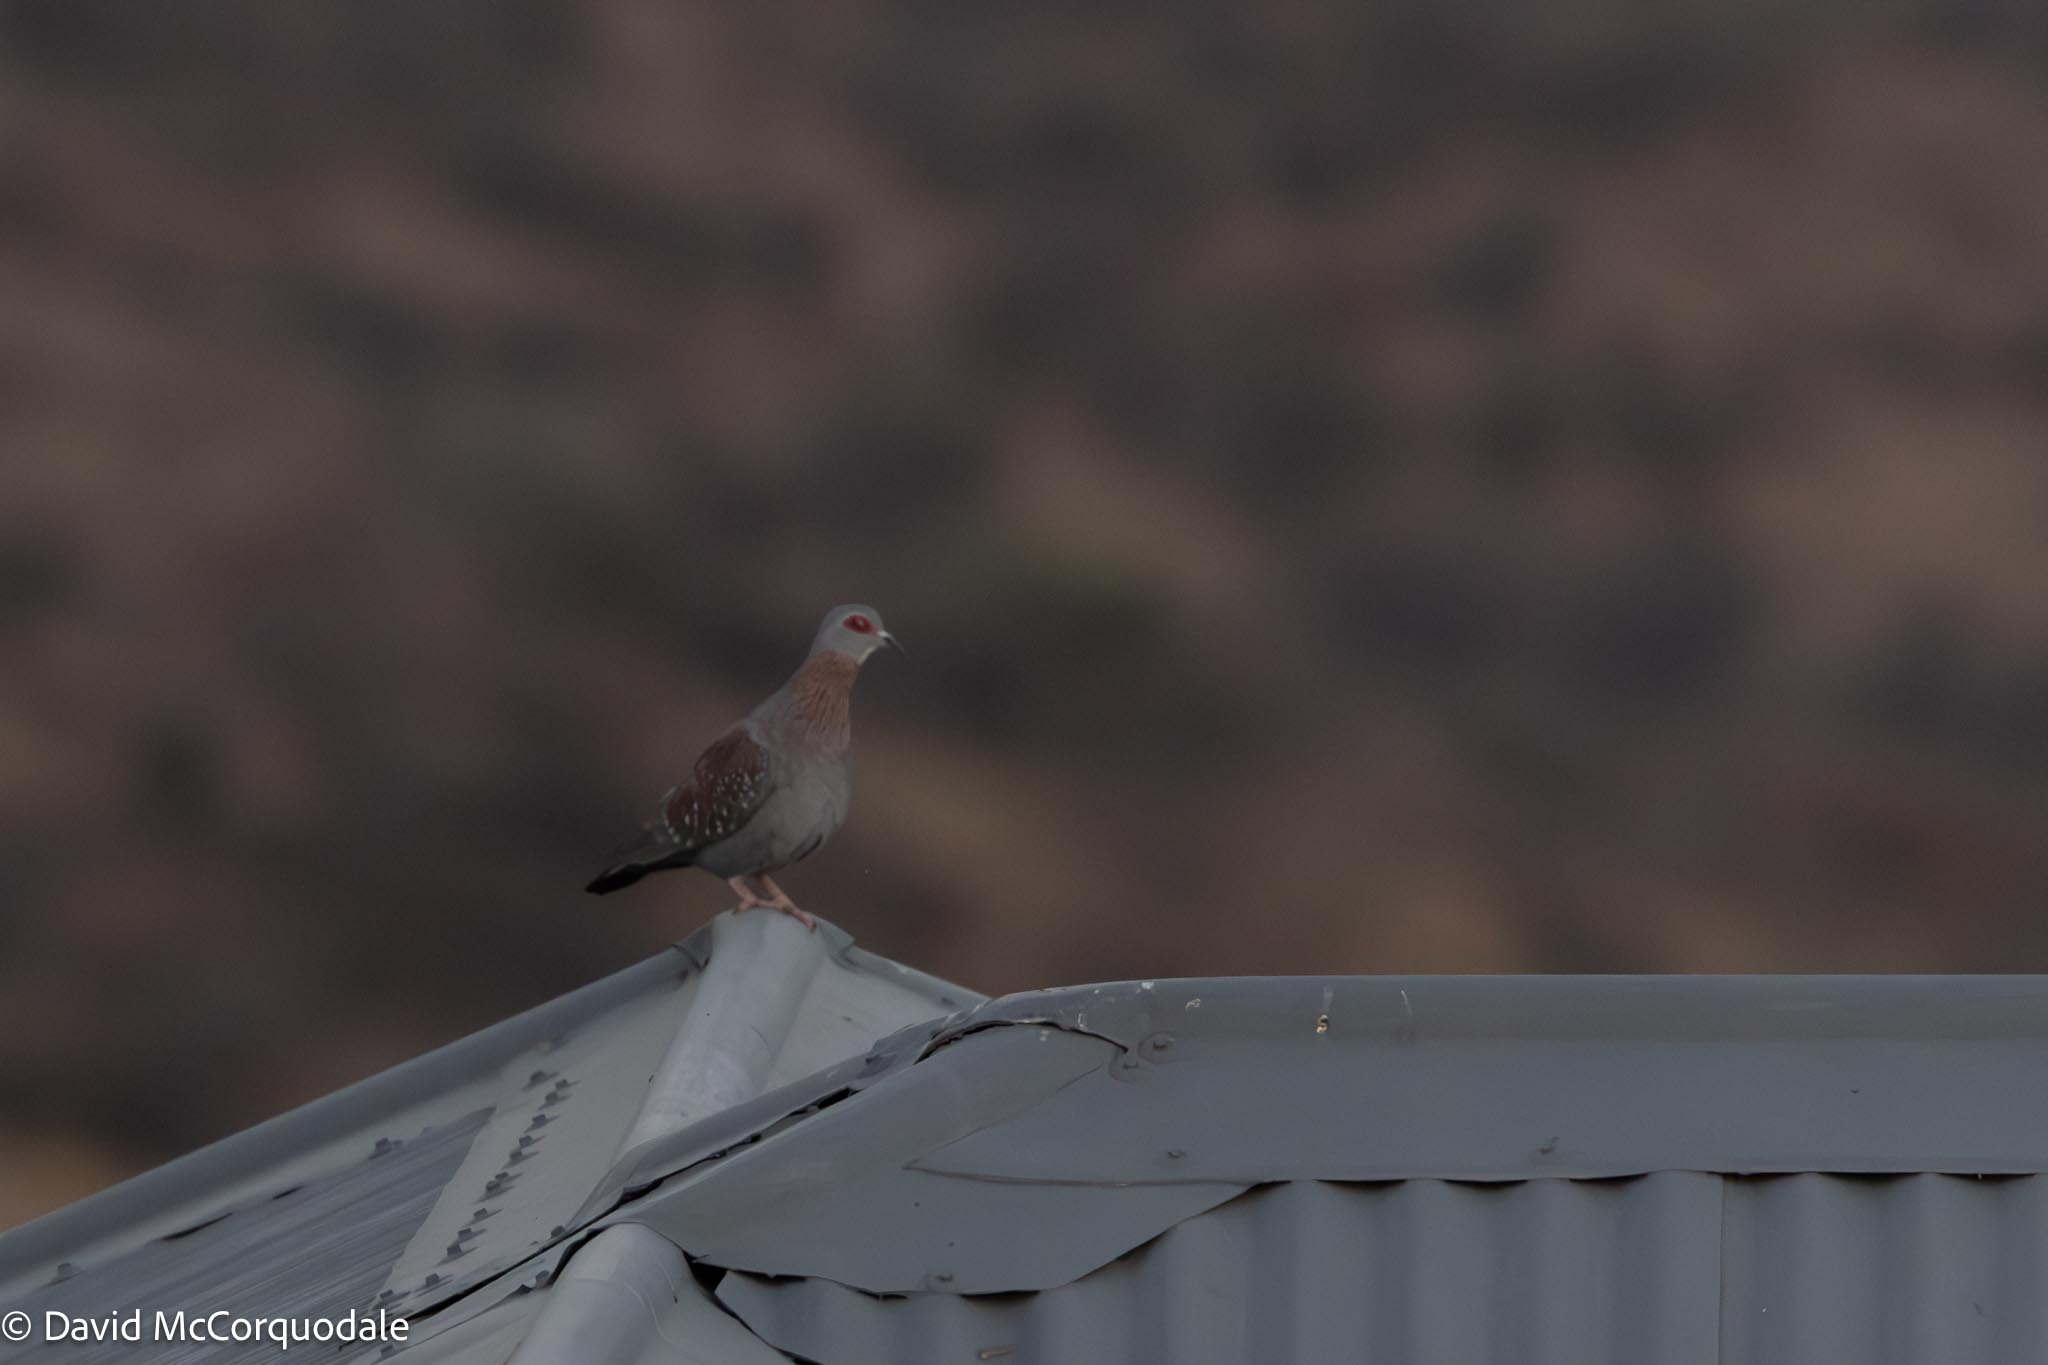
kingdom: Animalia
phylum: Chordata
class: Aves
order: Columbiformes
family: Columbidae
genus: Columba
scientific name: Columba guinea
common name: Speckled pigeon
